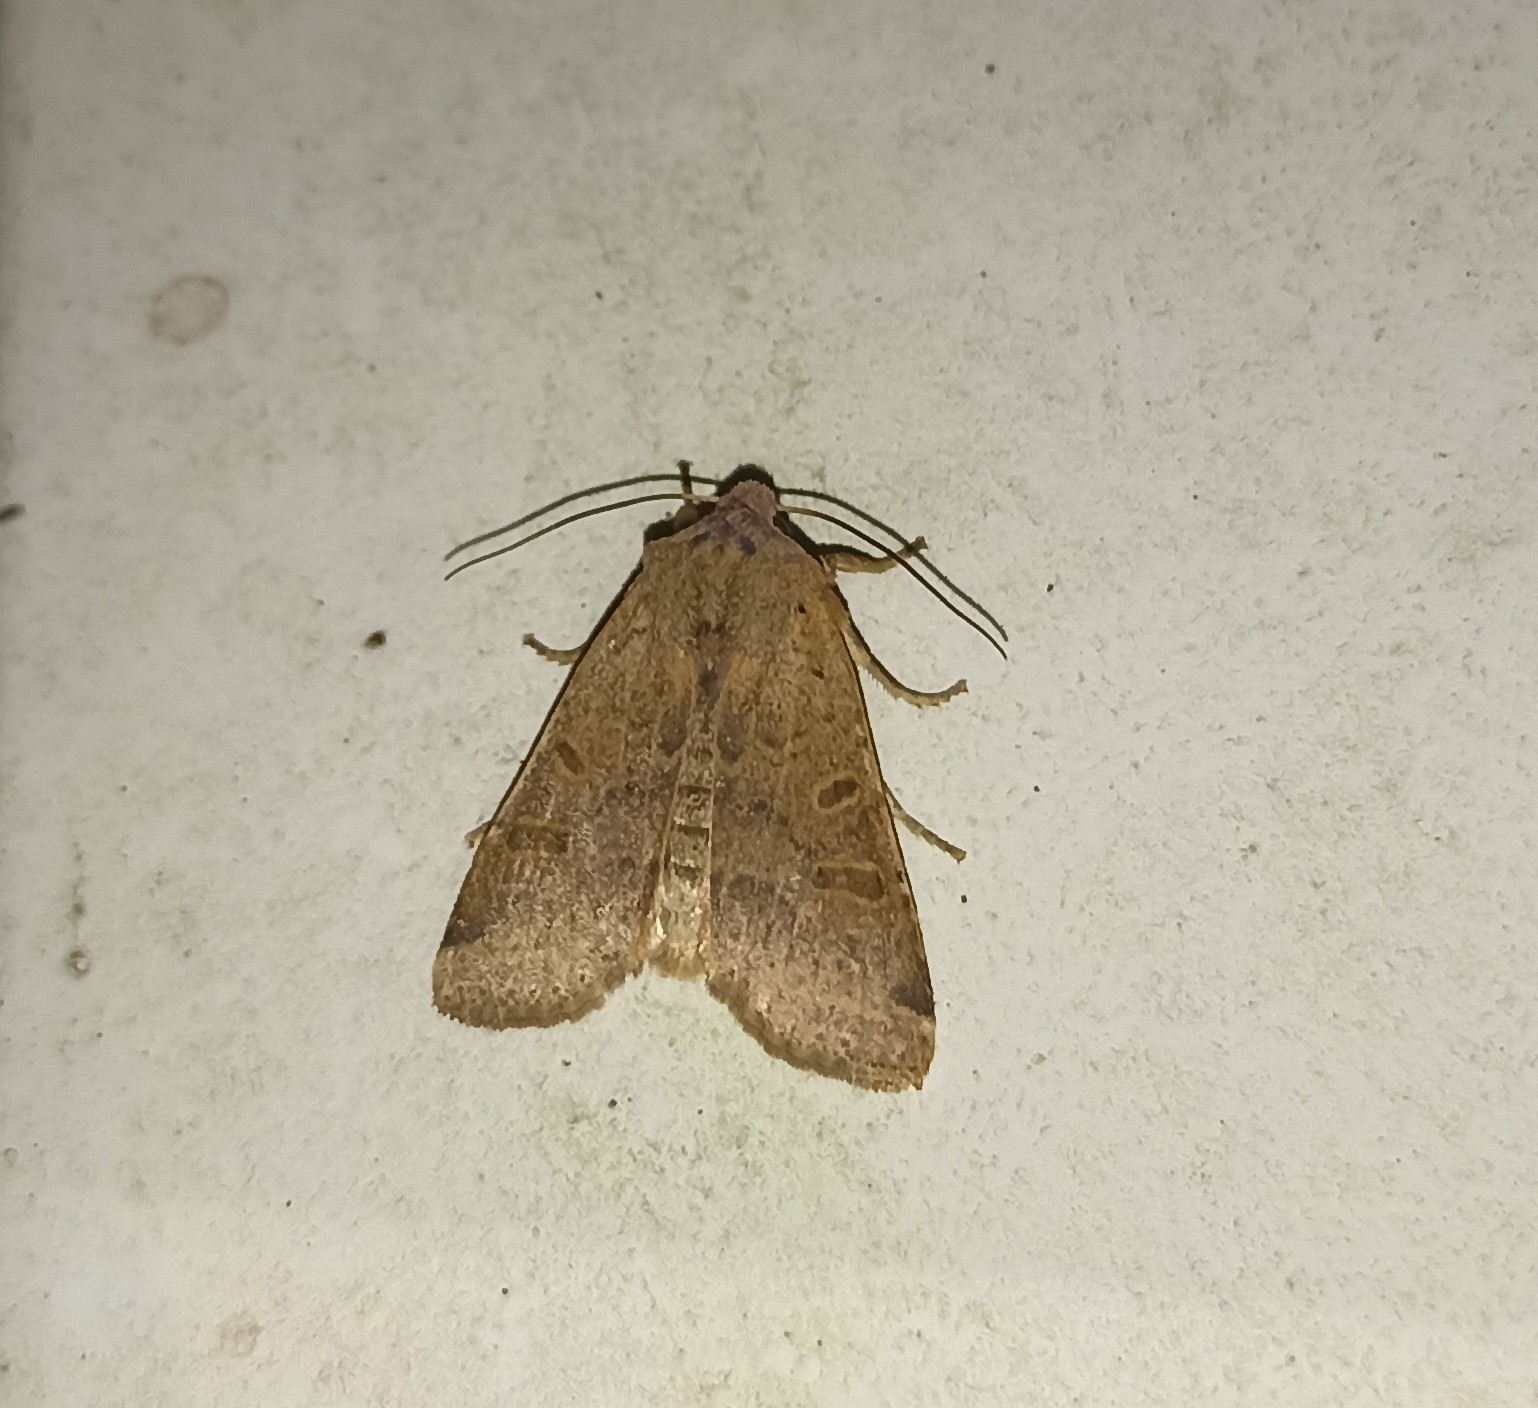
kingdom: Animalia
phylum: Arthropoda
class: Insecta
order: Lepidoptera
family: Noctuidae
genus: Agrochola
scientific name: Agrochola lychnidis
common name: Beaded chestnut
